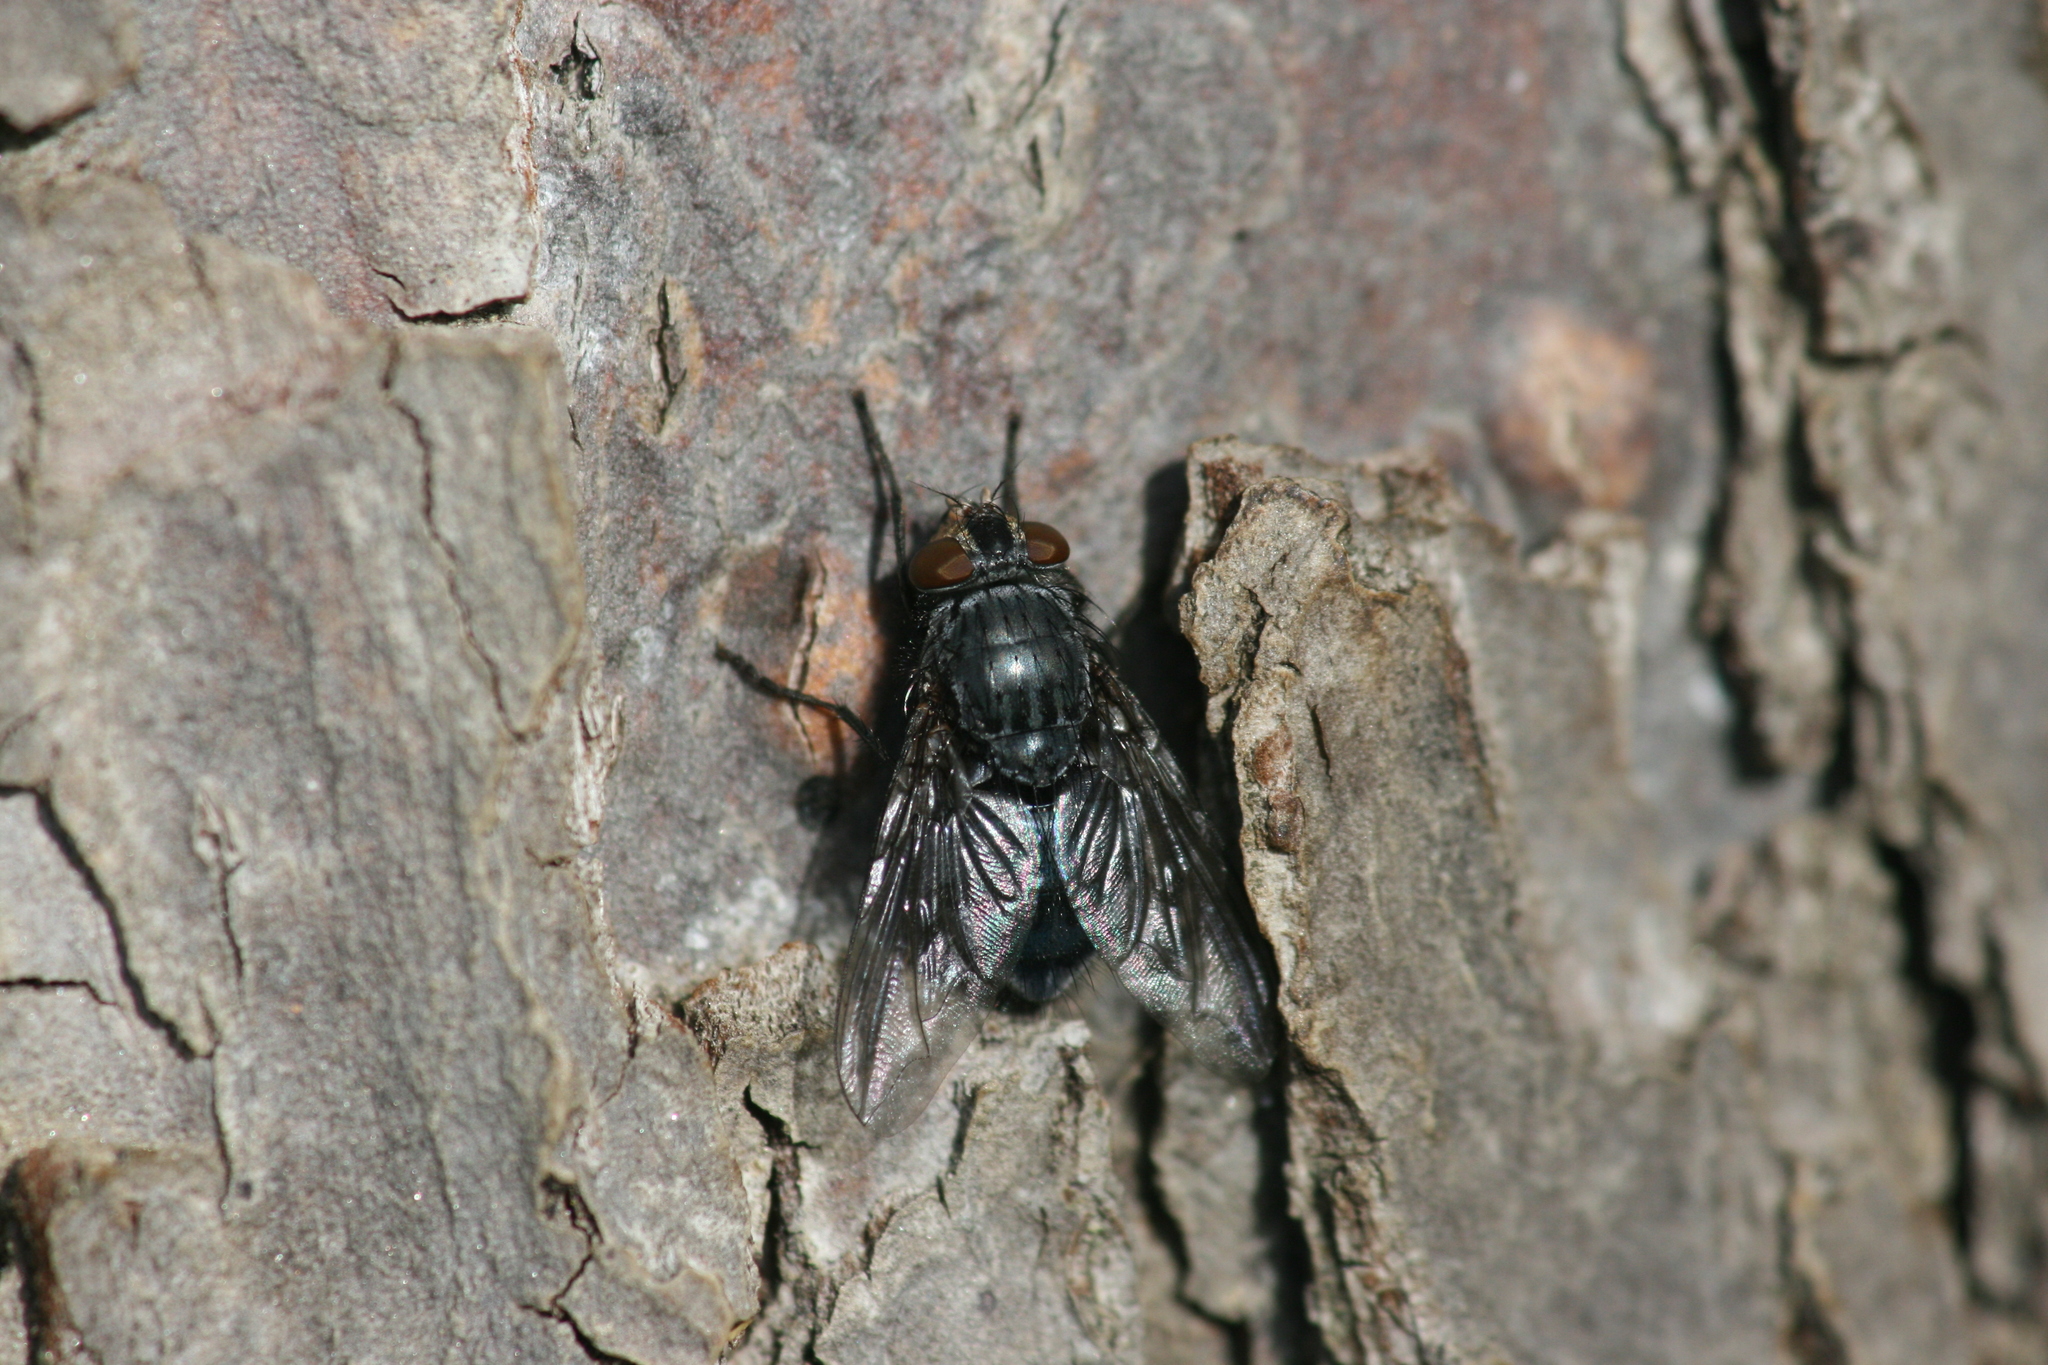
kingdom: Animalia
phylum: Arthropoda
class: Insecta
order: Diptera
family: Calliphoridae
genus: Calliphora
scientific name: Calliphora vicina
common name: Common blow flie
